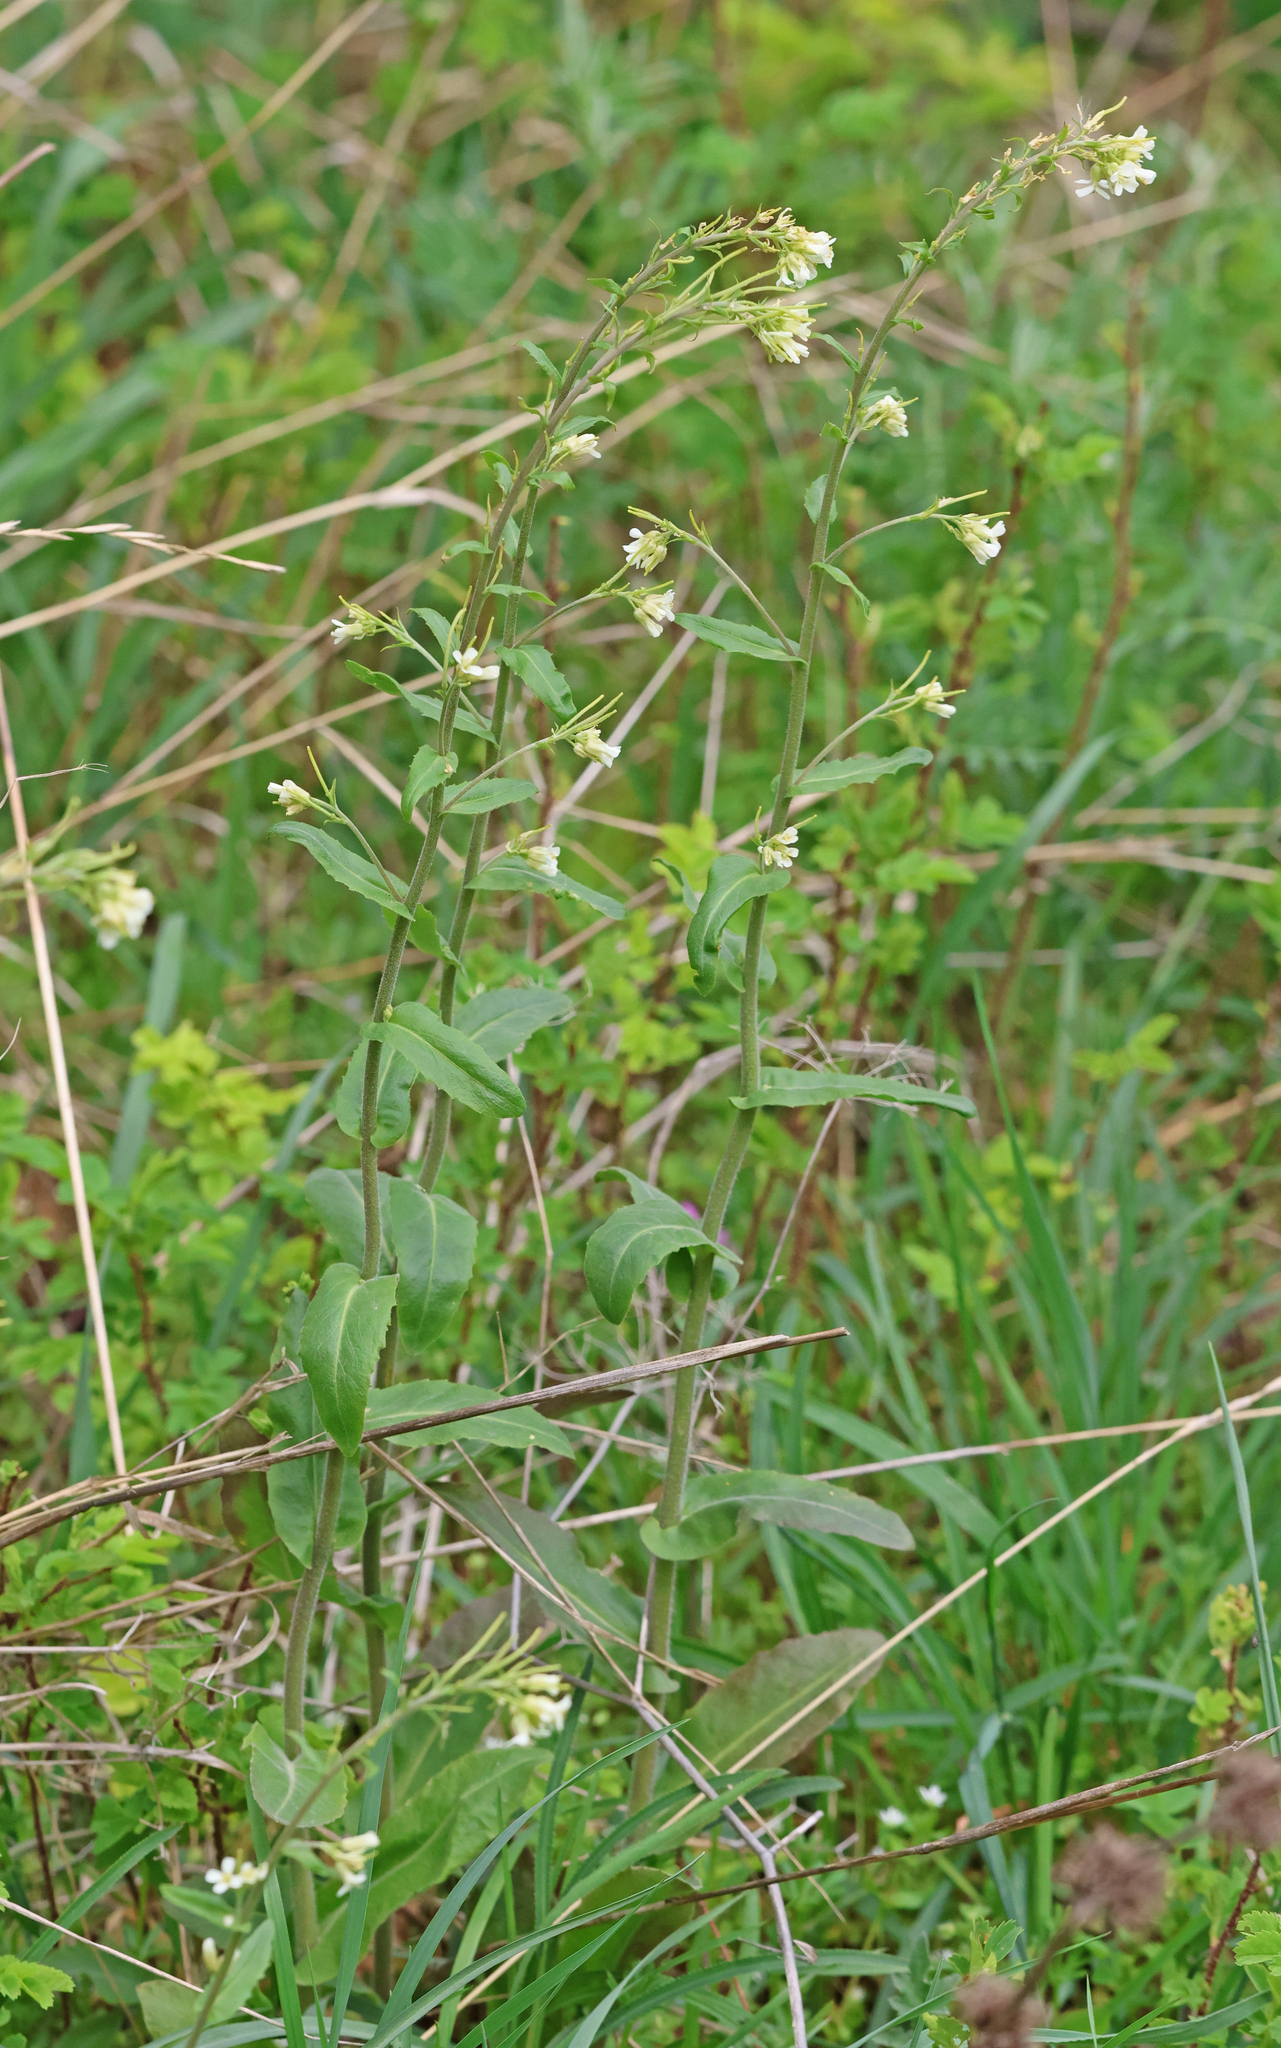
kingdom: Plantae
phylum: Tracheophyta
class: Magnoliopsida
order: Brassicales
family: Brassicaceae
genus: Pseudoturritis
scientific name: Pseudoturritis turrita
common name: Tower cress
